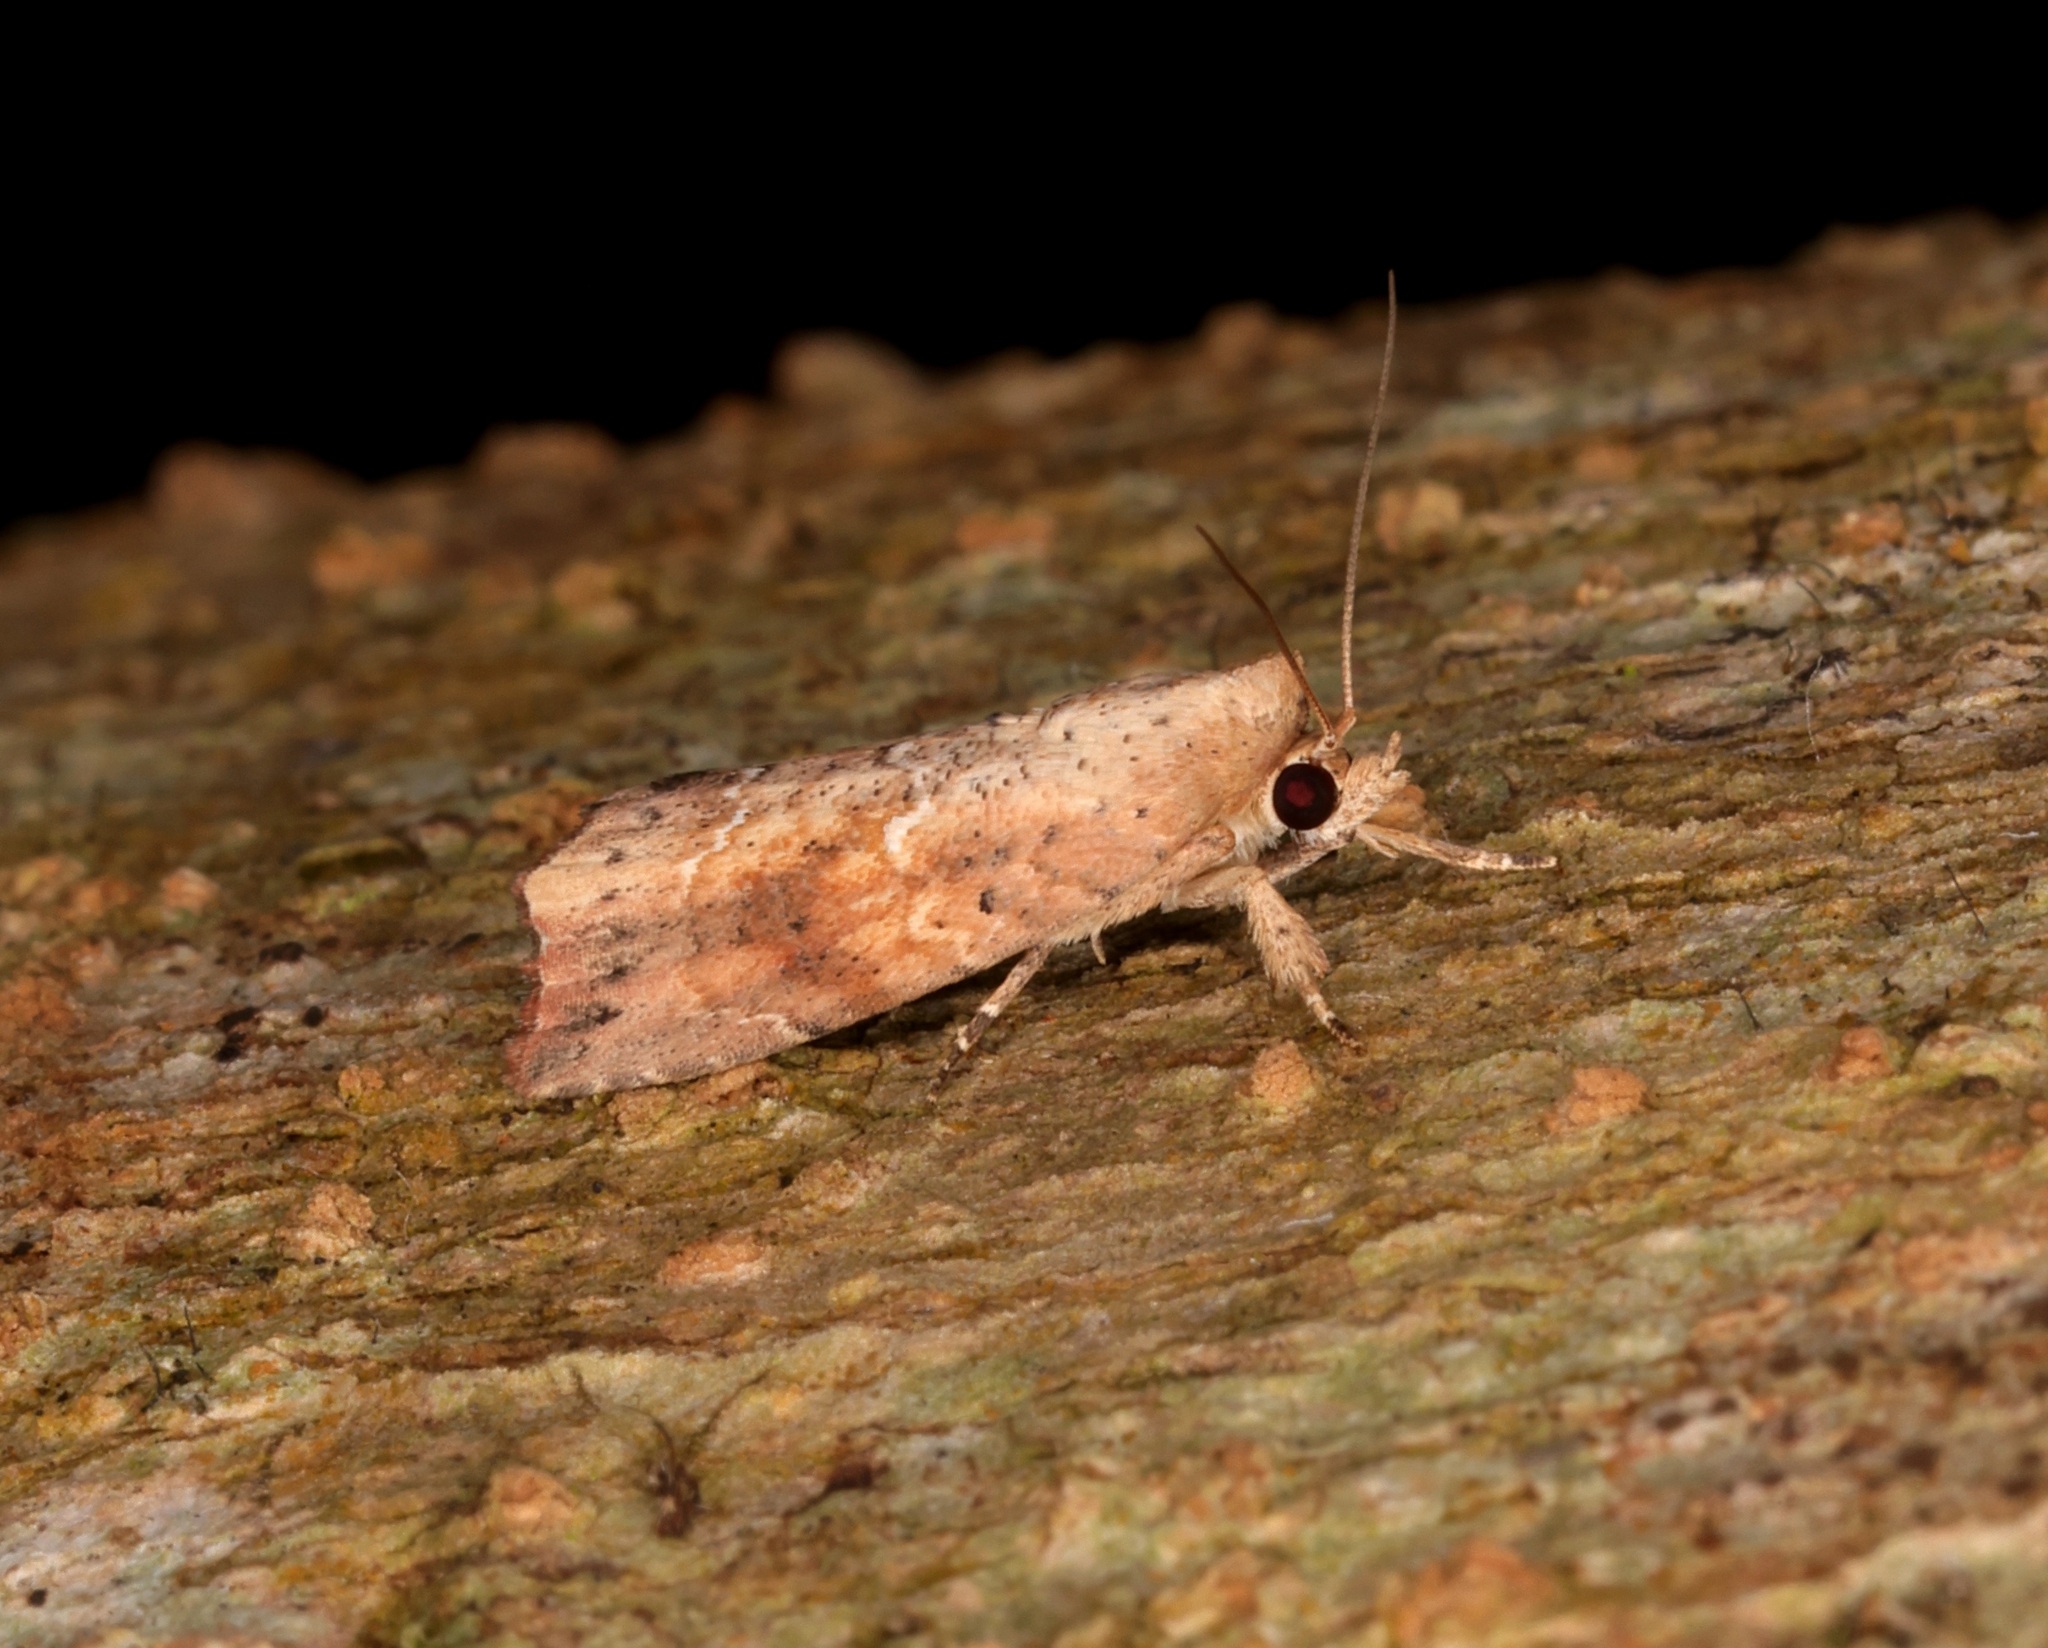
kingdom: Animalia
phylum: Arthropoda
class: Insecta
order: Lepidoptera
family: Nolidae
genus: Camptozada
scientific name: Camptozada mirabilis
